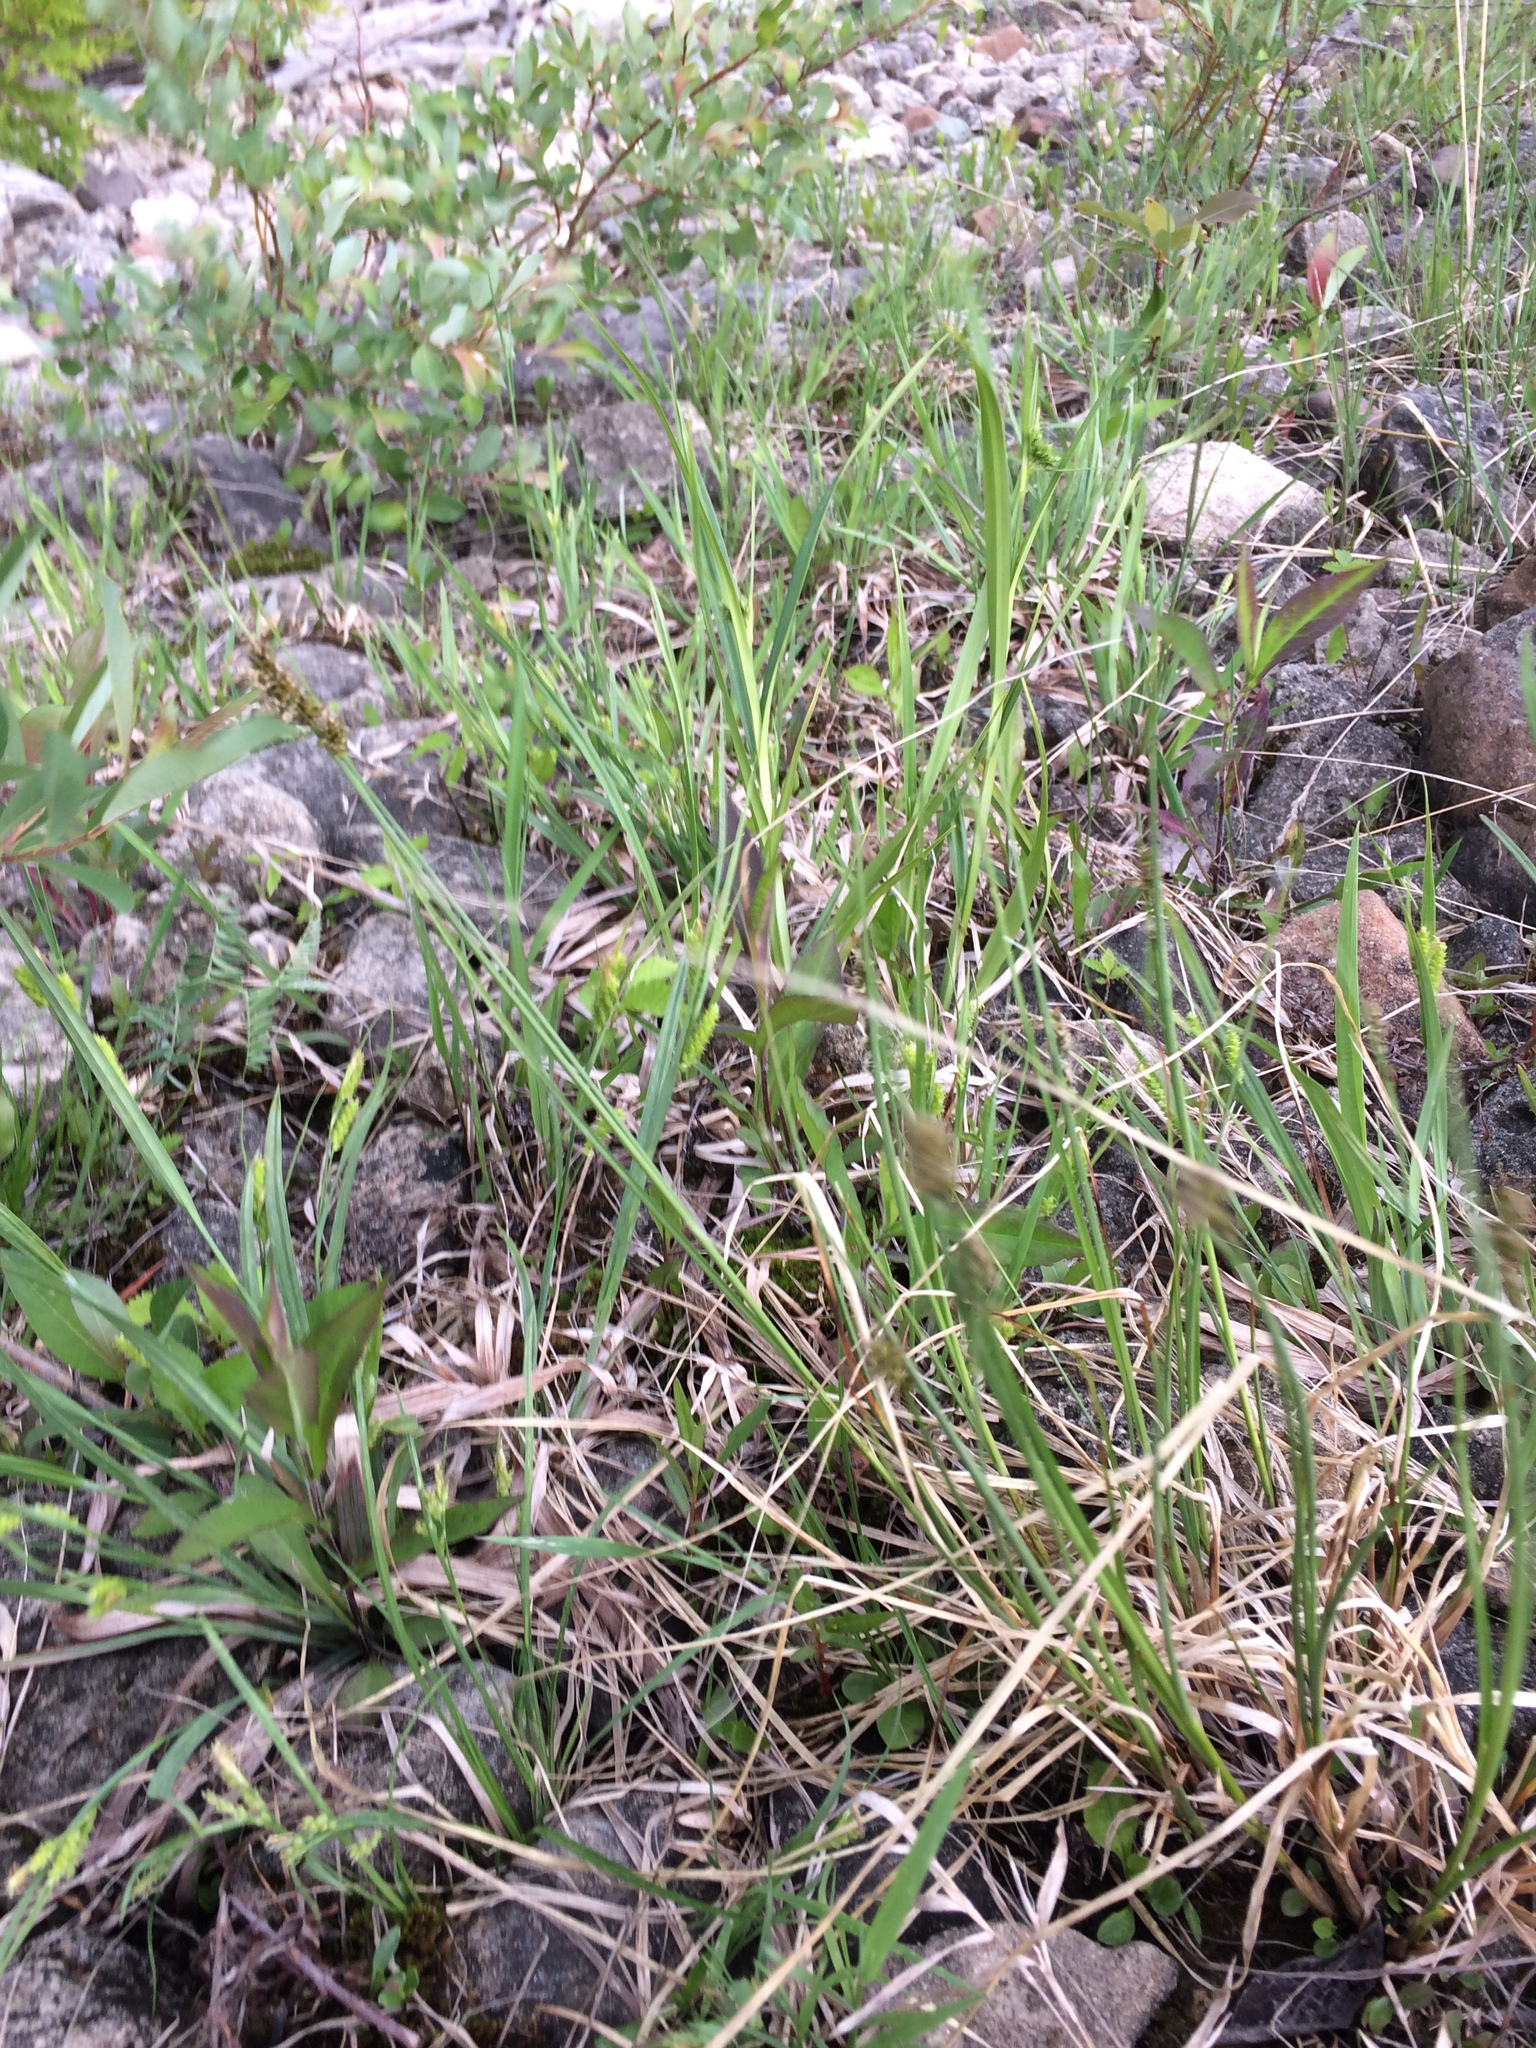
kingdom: Plantae
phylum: Tracheophyta
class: Liliopsida
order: Poales
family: Cyperaceae
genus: Carex
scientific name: Carex diandra
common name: Lesser tussock-sedge
